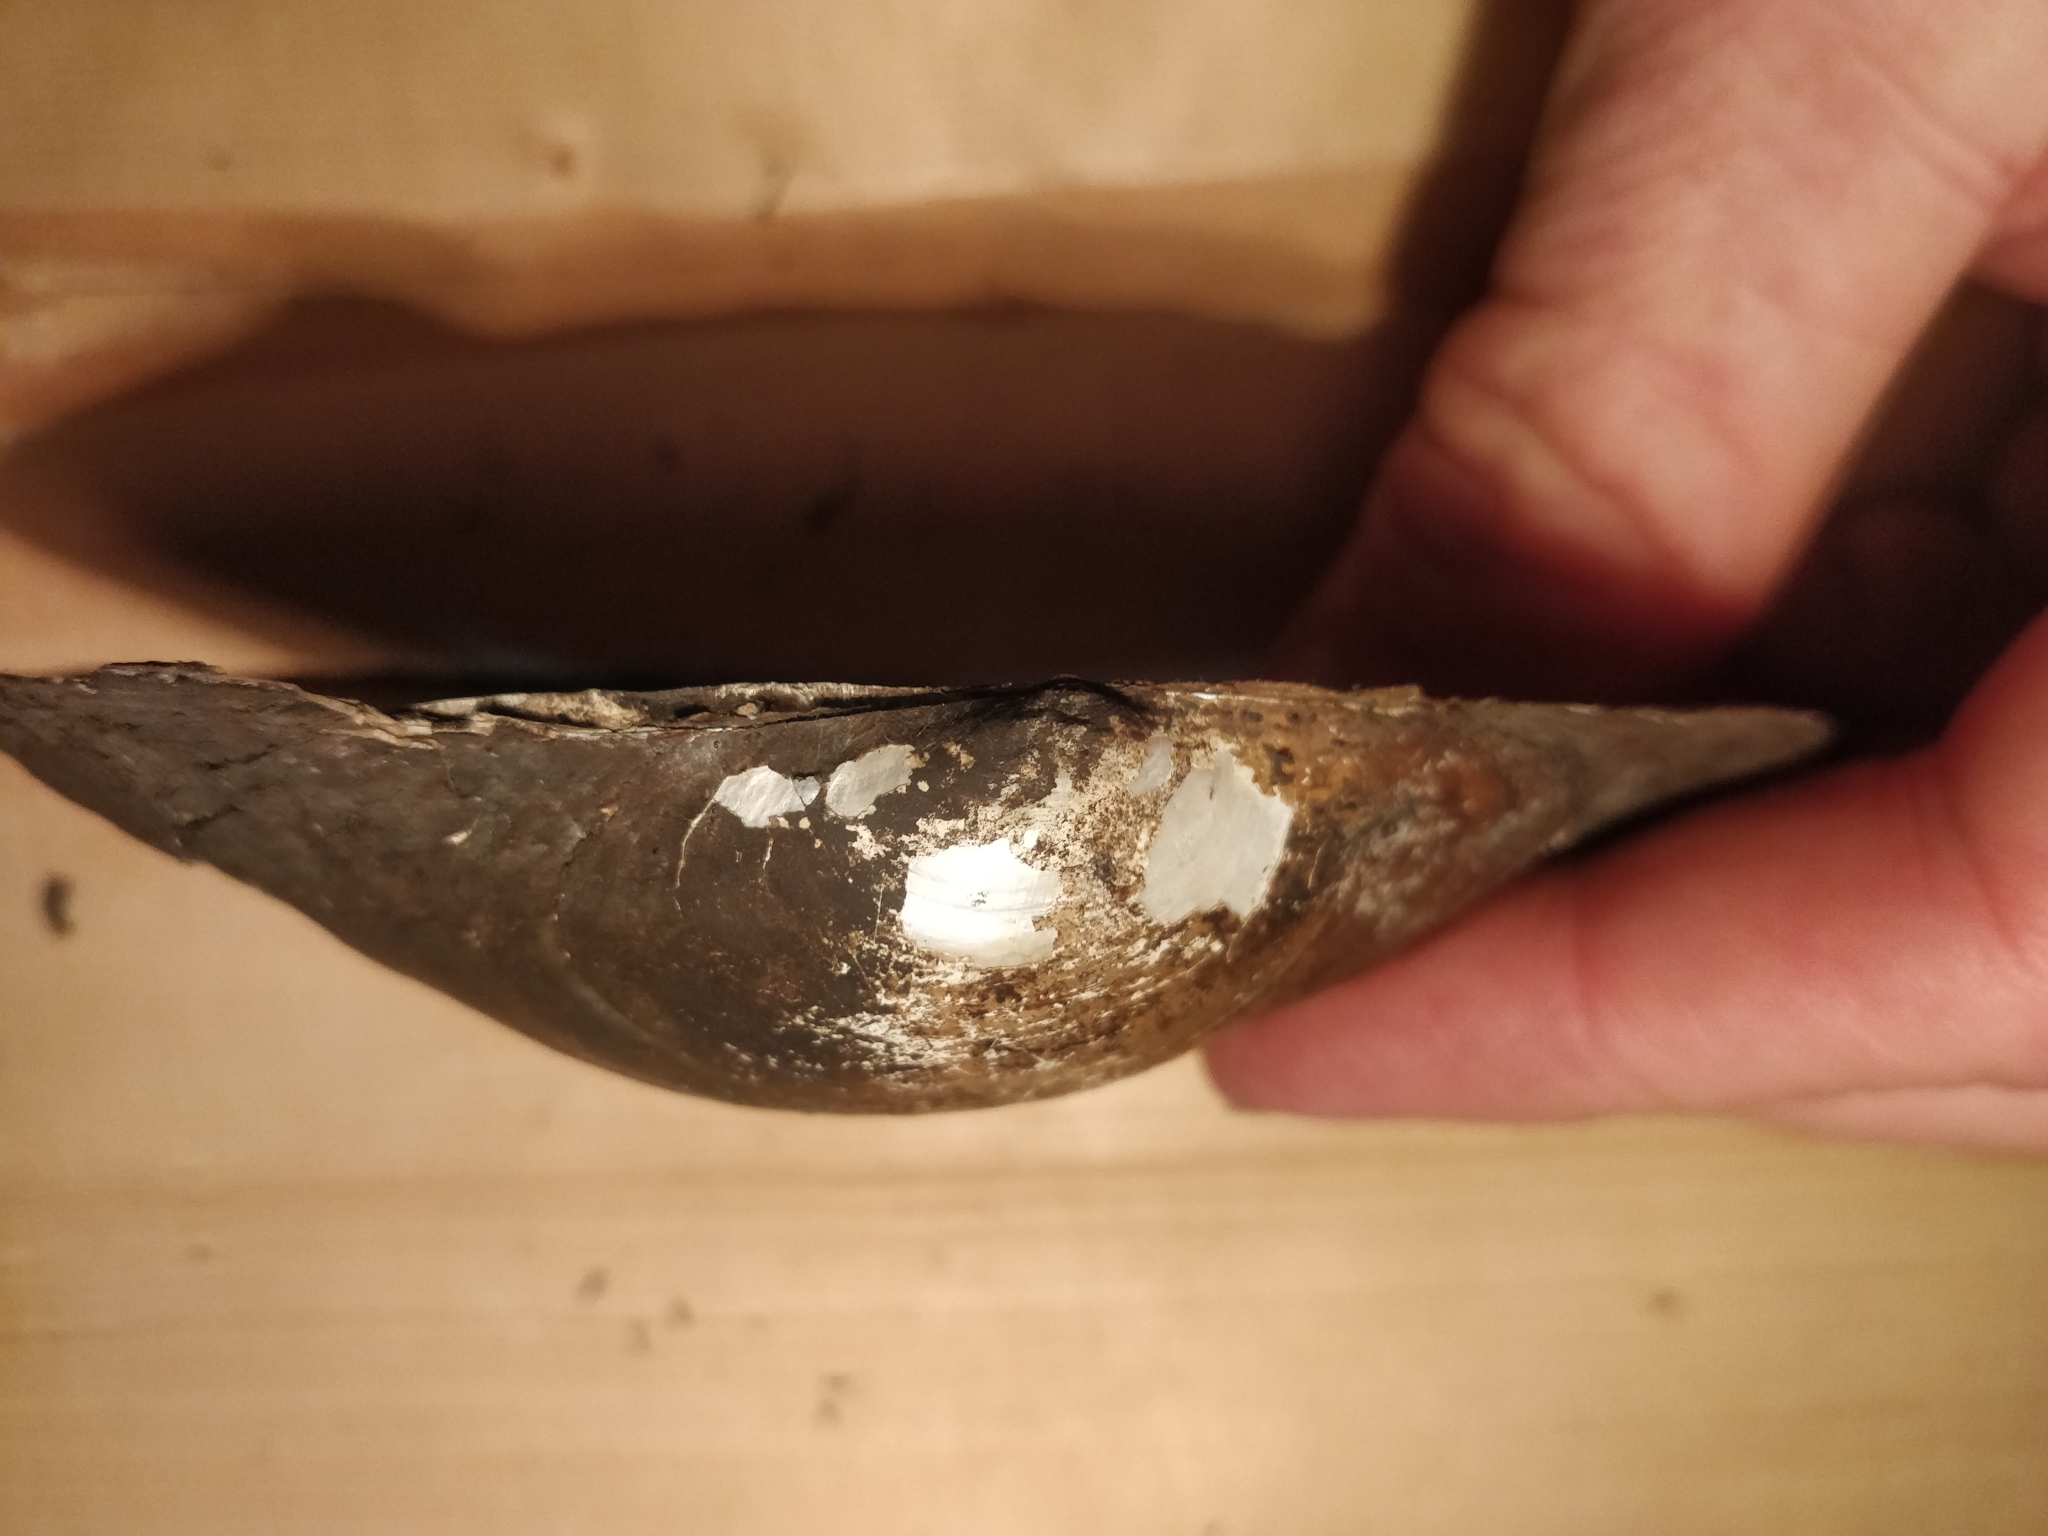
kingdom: Animalia
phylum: Mollusca
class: Bivalvia
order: Unionida
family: Unionidae
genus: Pyganodon
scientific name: Pyganodon grandis
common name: Giant floater
